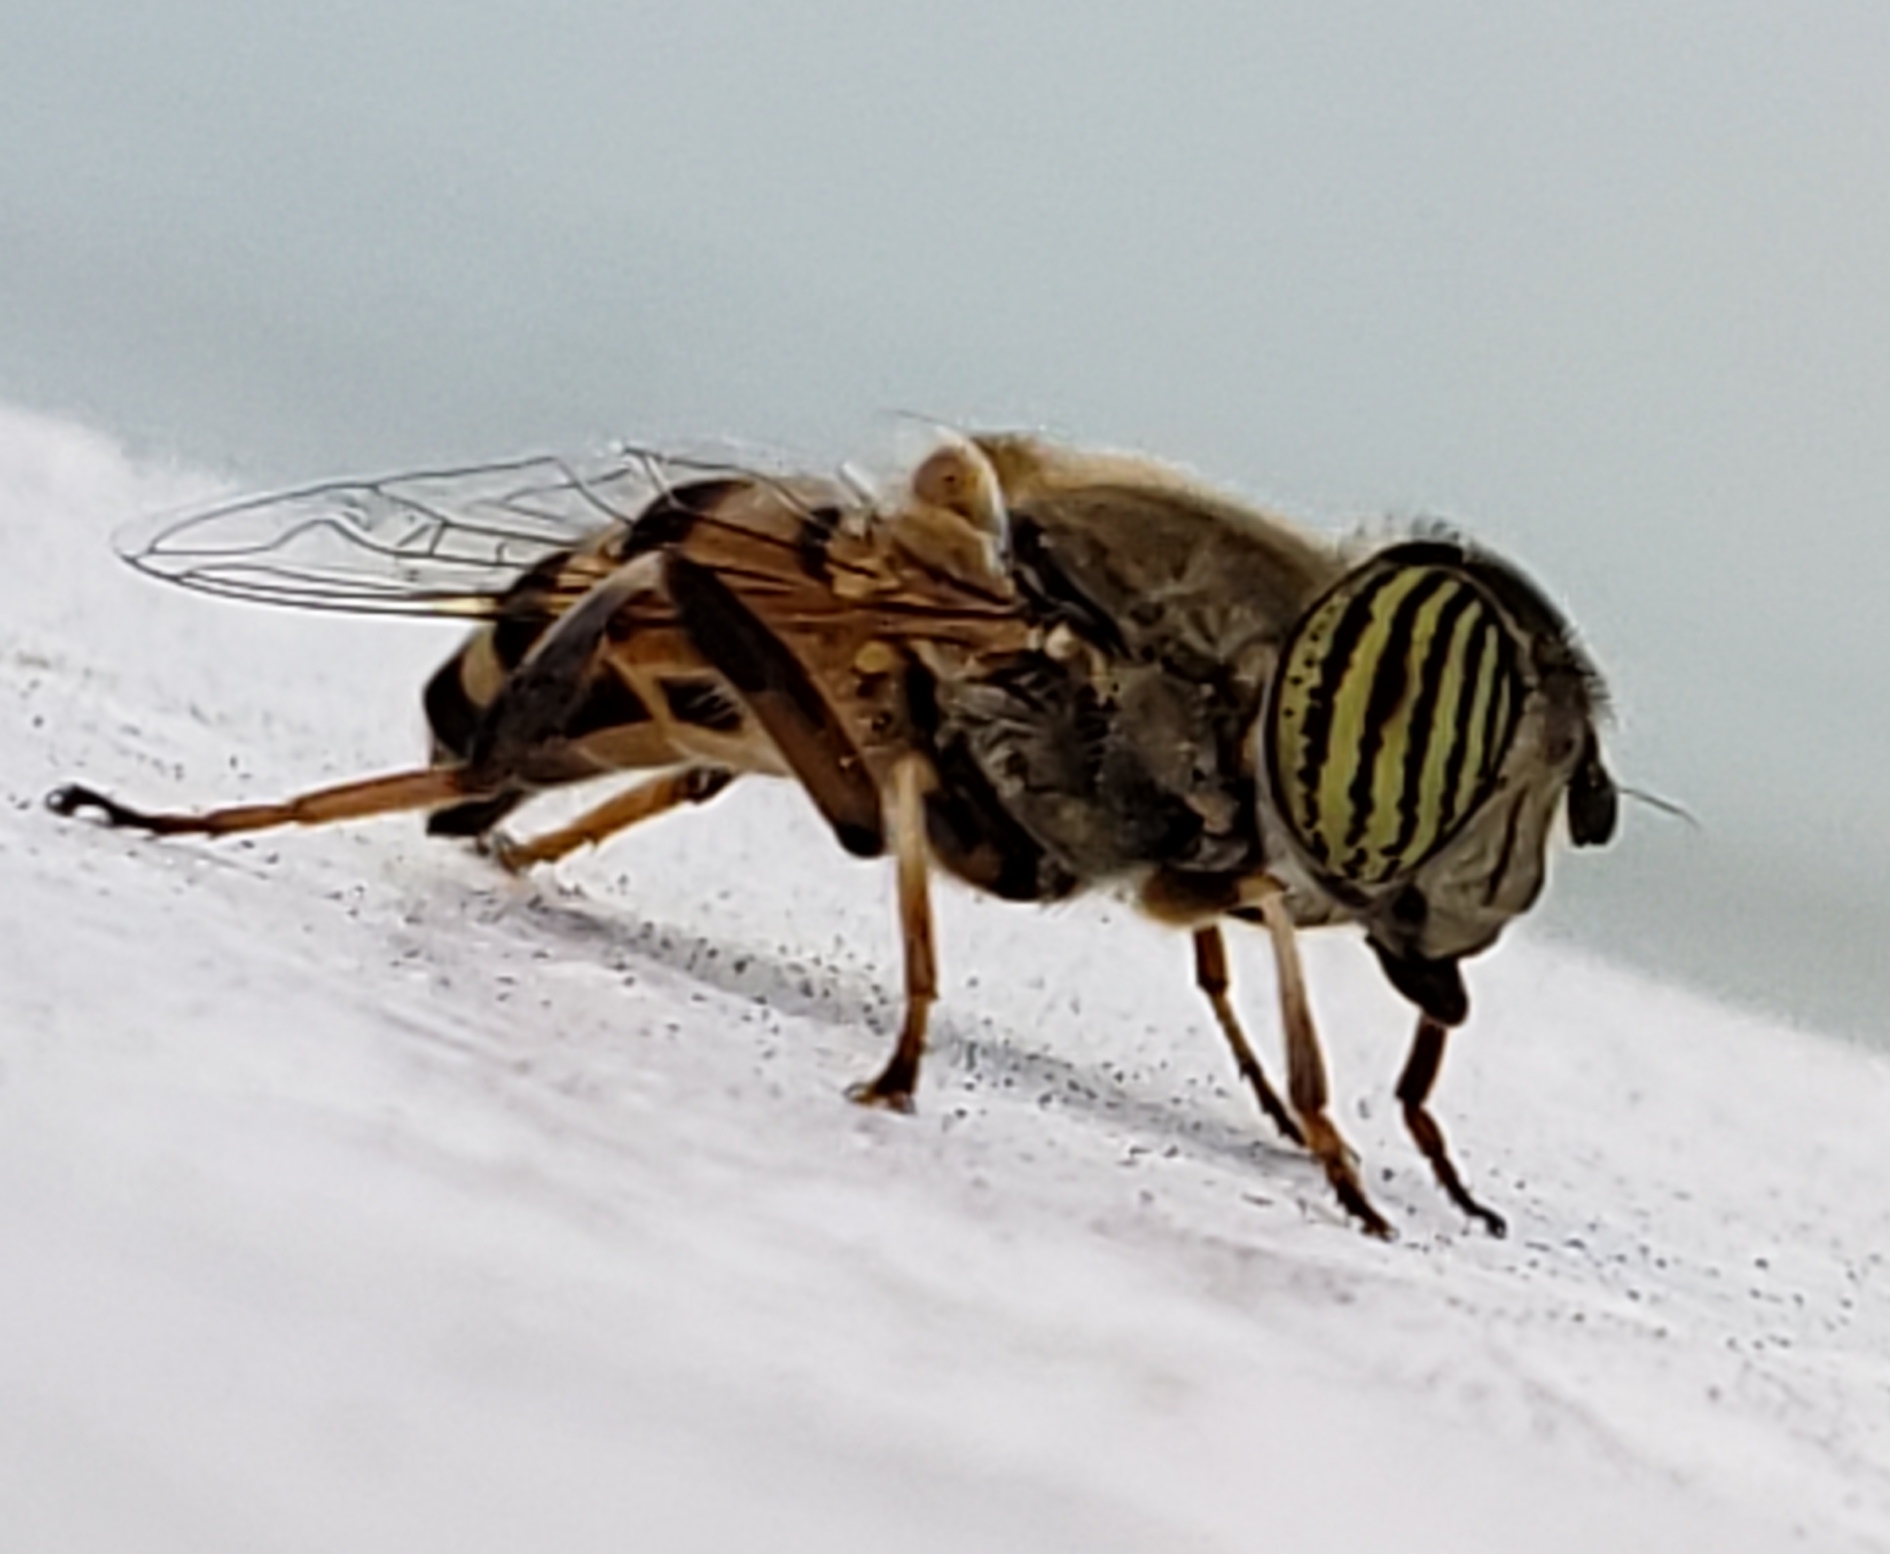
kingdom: Animalia
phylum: Arthropoda
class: Insecta
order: Diptera
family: Syrphidae
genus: Eristalinus
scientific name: Eristalinus taeniops
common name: Syrphid fly
